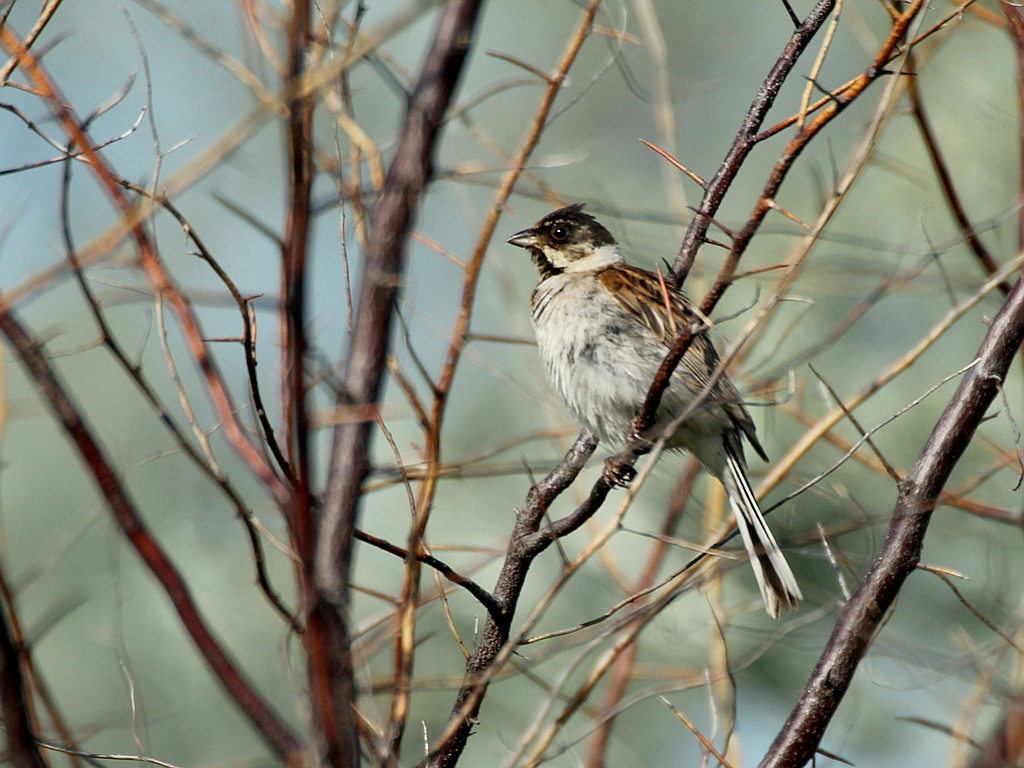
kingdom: Animalia
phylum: Chordata
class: Aves
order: Passeriformes
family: Emberizidae
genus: Emberiza
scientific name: Emberiza schoeniclus
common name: Reed bunting
